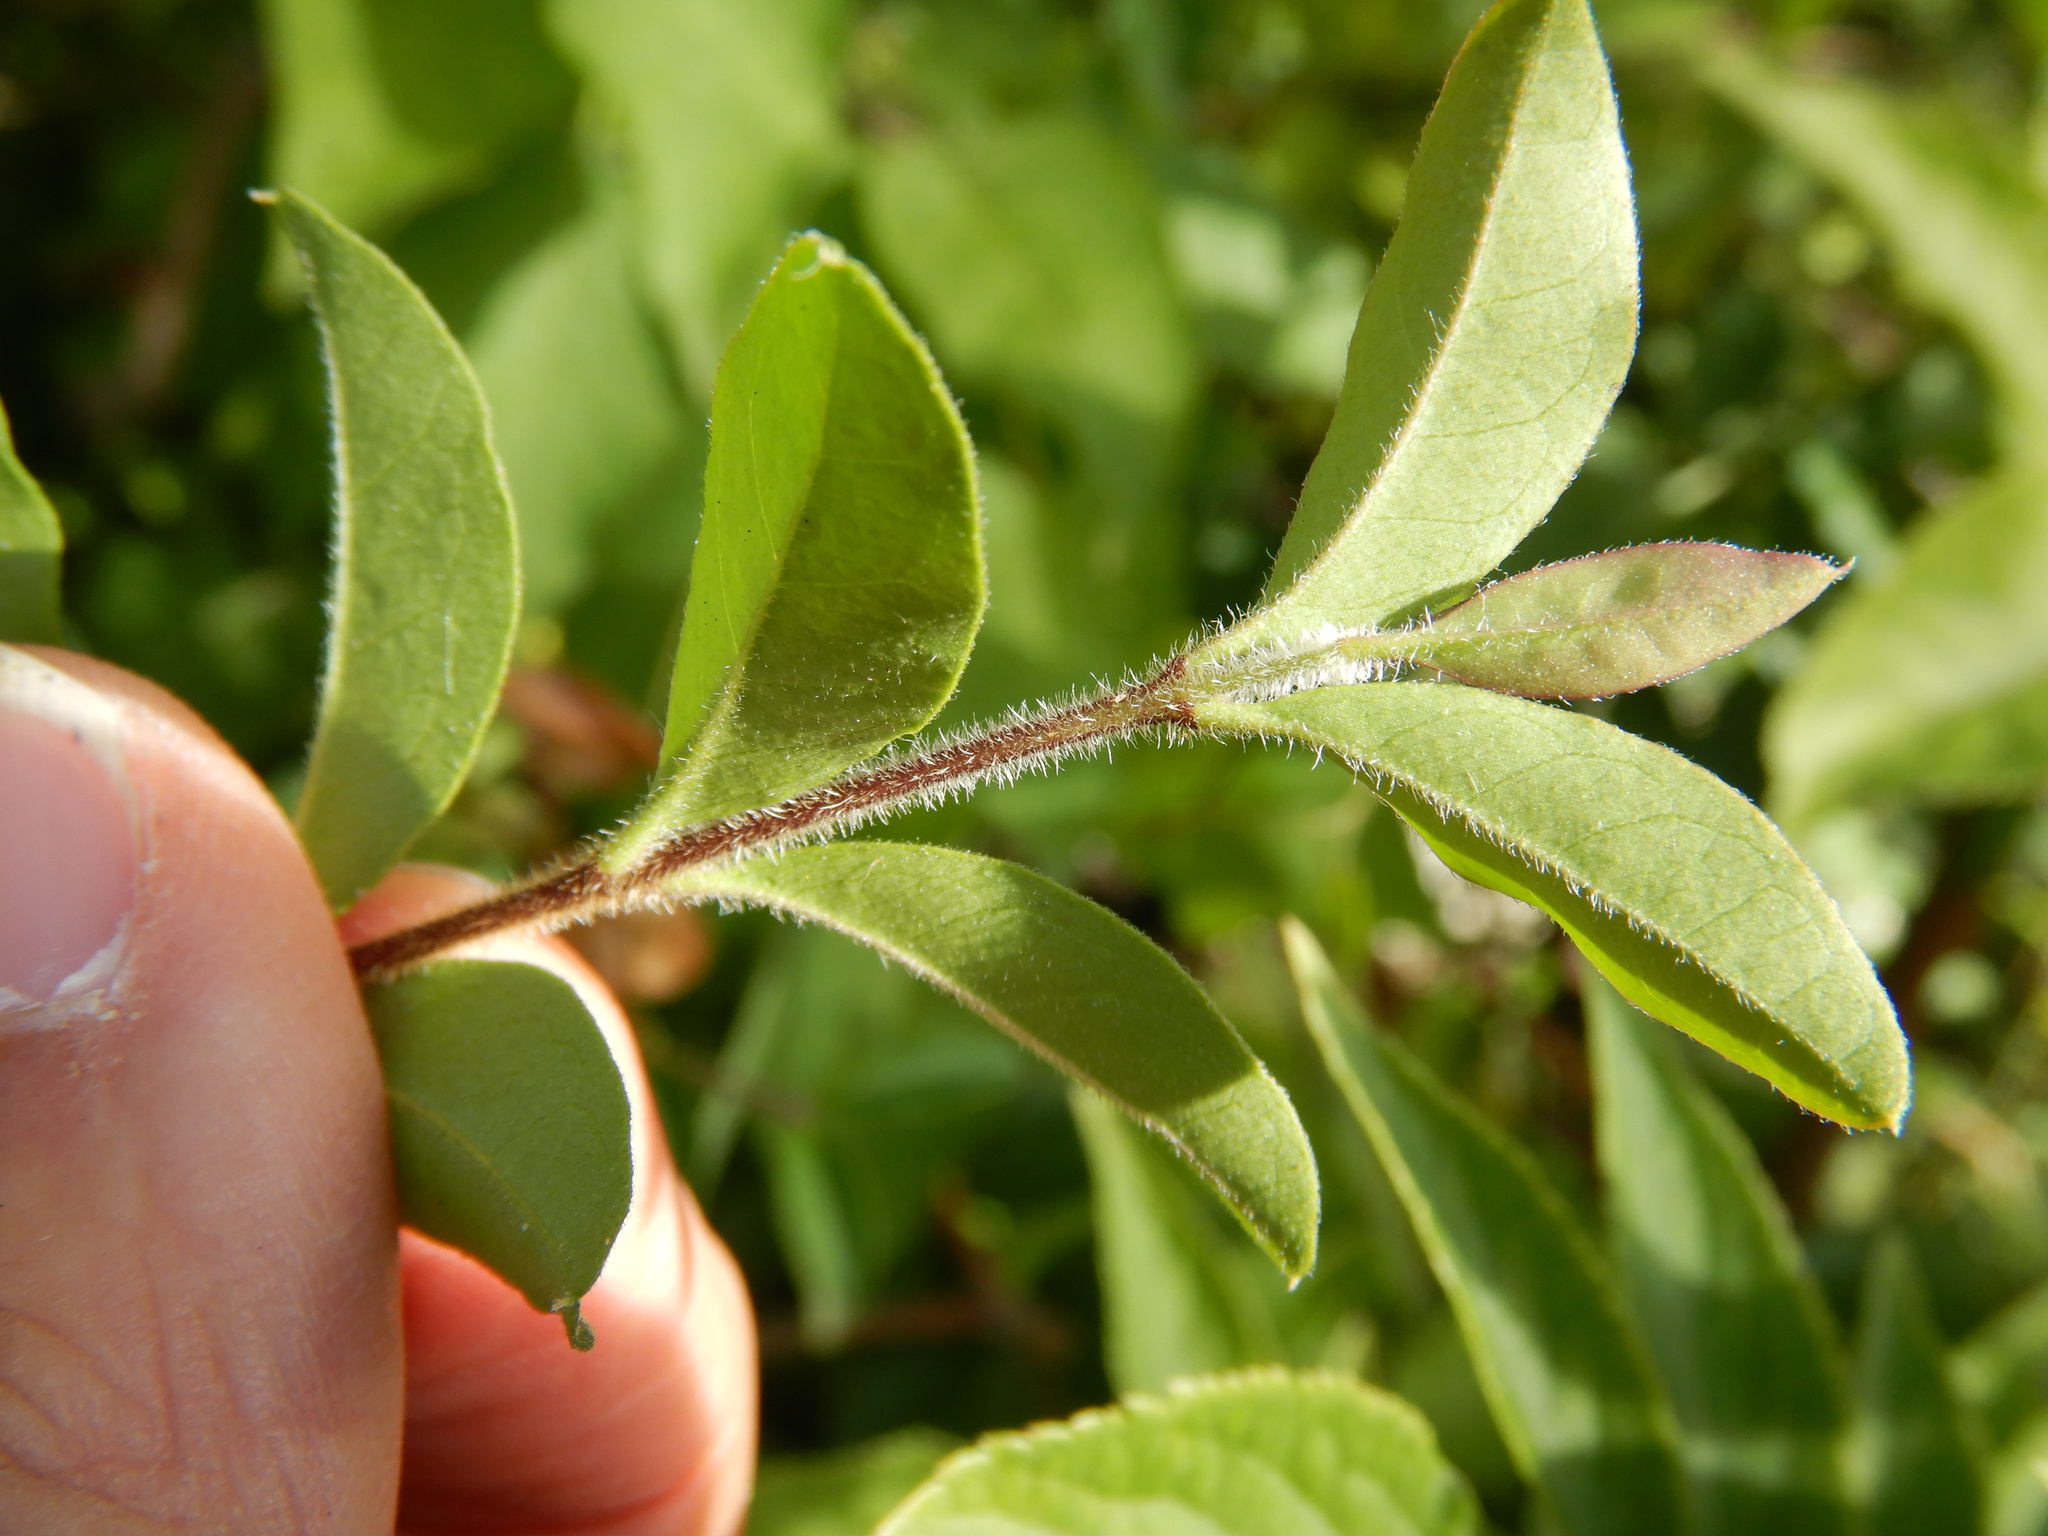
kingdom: Plantae
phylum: Tracheophyta
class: Magnoliopsida
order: Lamiales
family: Oleaceae
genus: Ligustrum
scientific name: Ligustrum vulgare
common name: Wild privet
